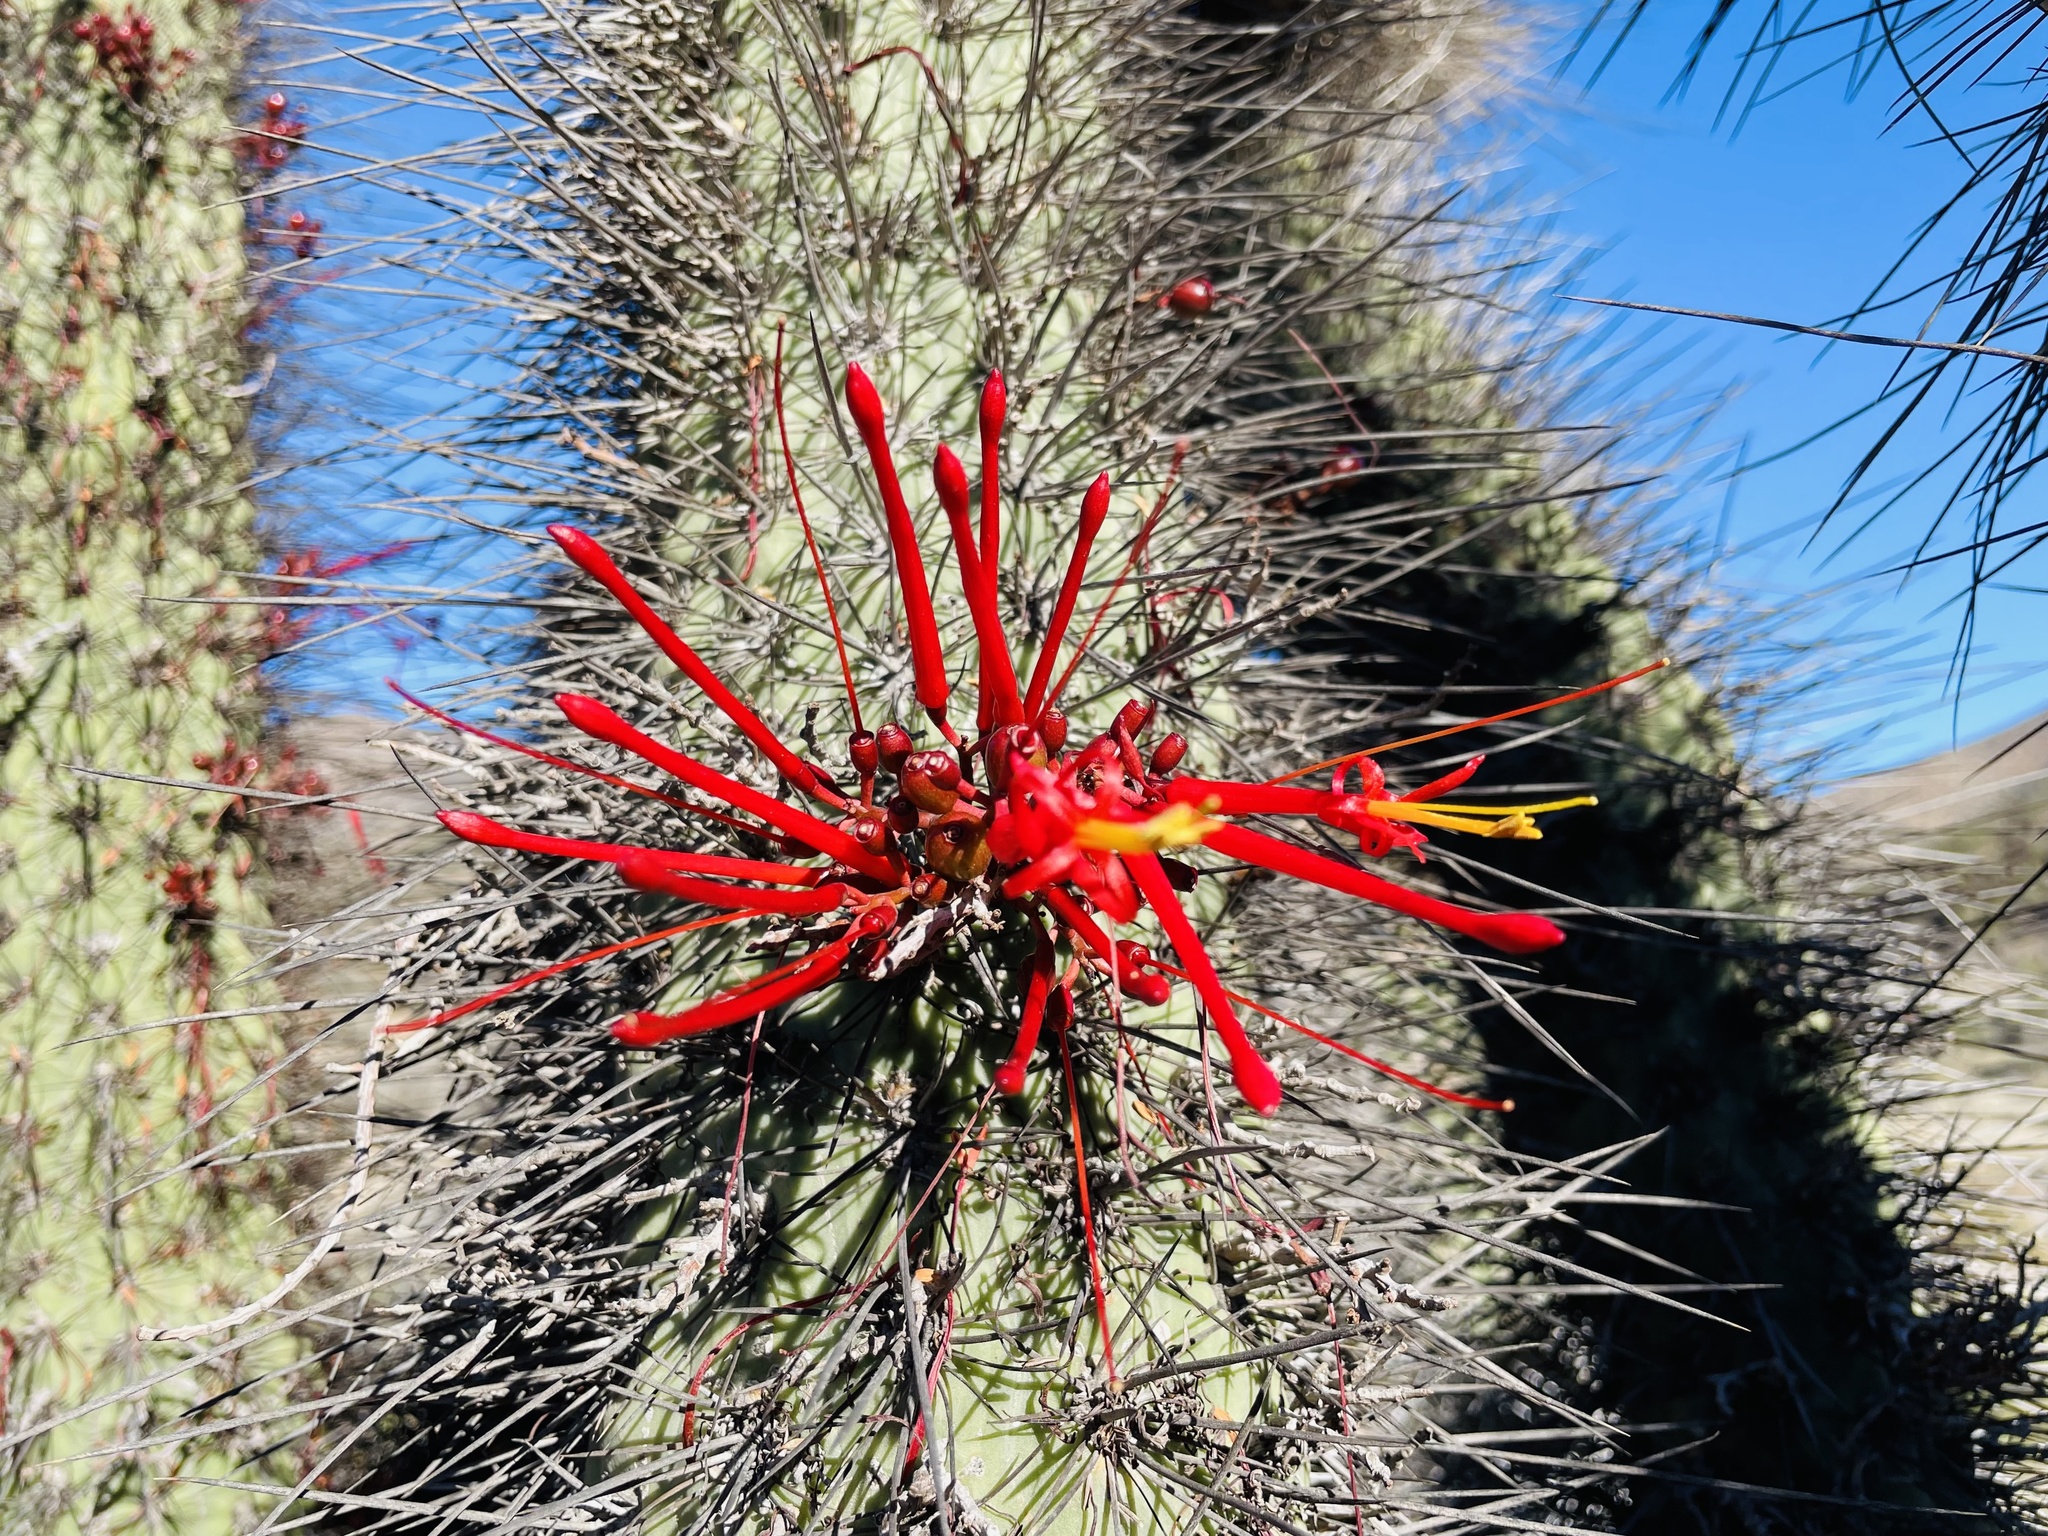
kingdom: Plantae
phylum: Tracheophyta
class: Magnoliopsida
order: Santalales
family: Loranthaceae
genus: Tristerix
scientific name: Tristerix aphyllus
